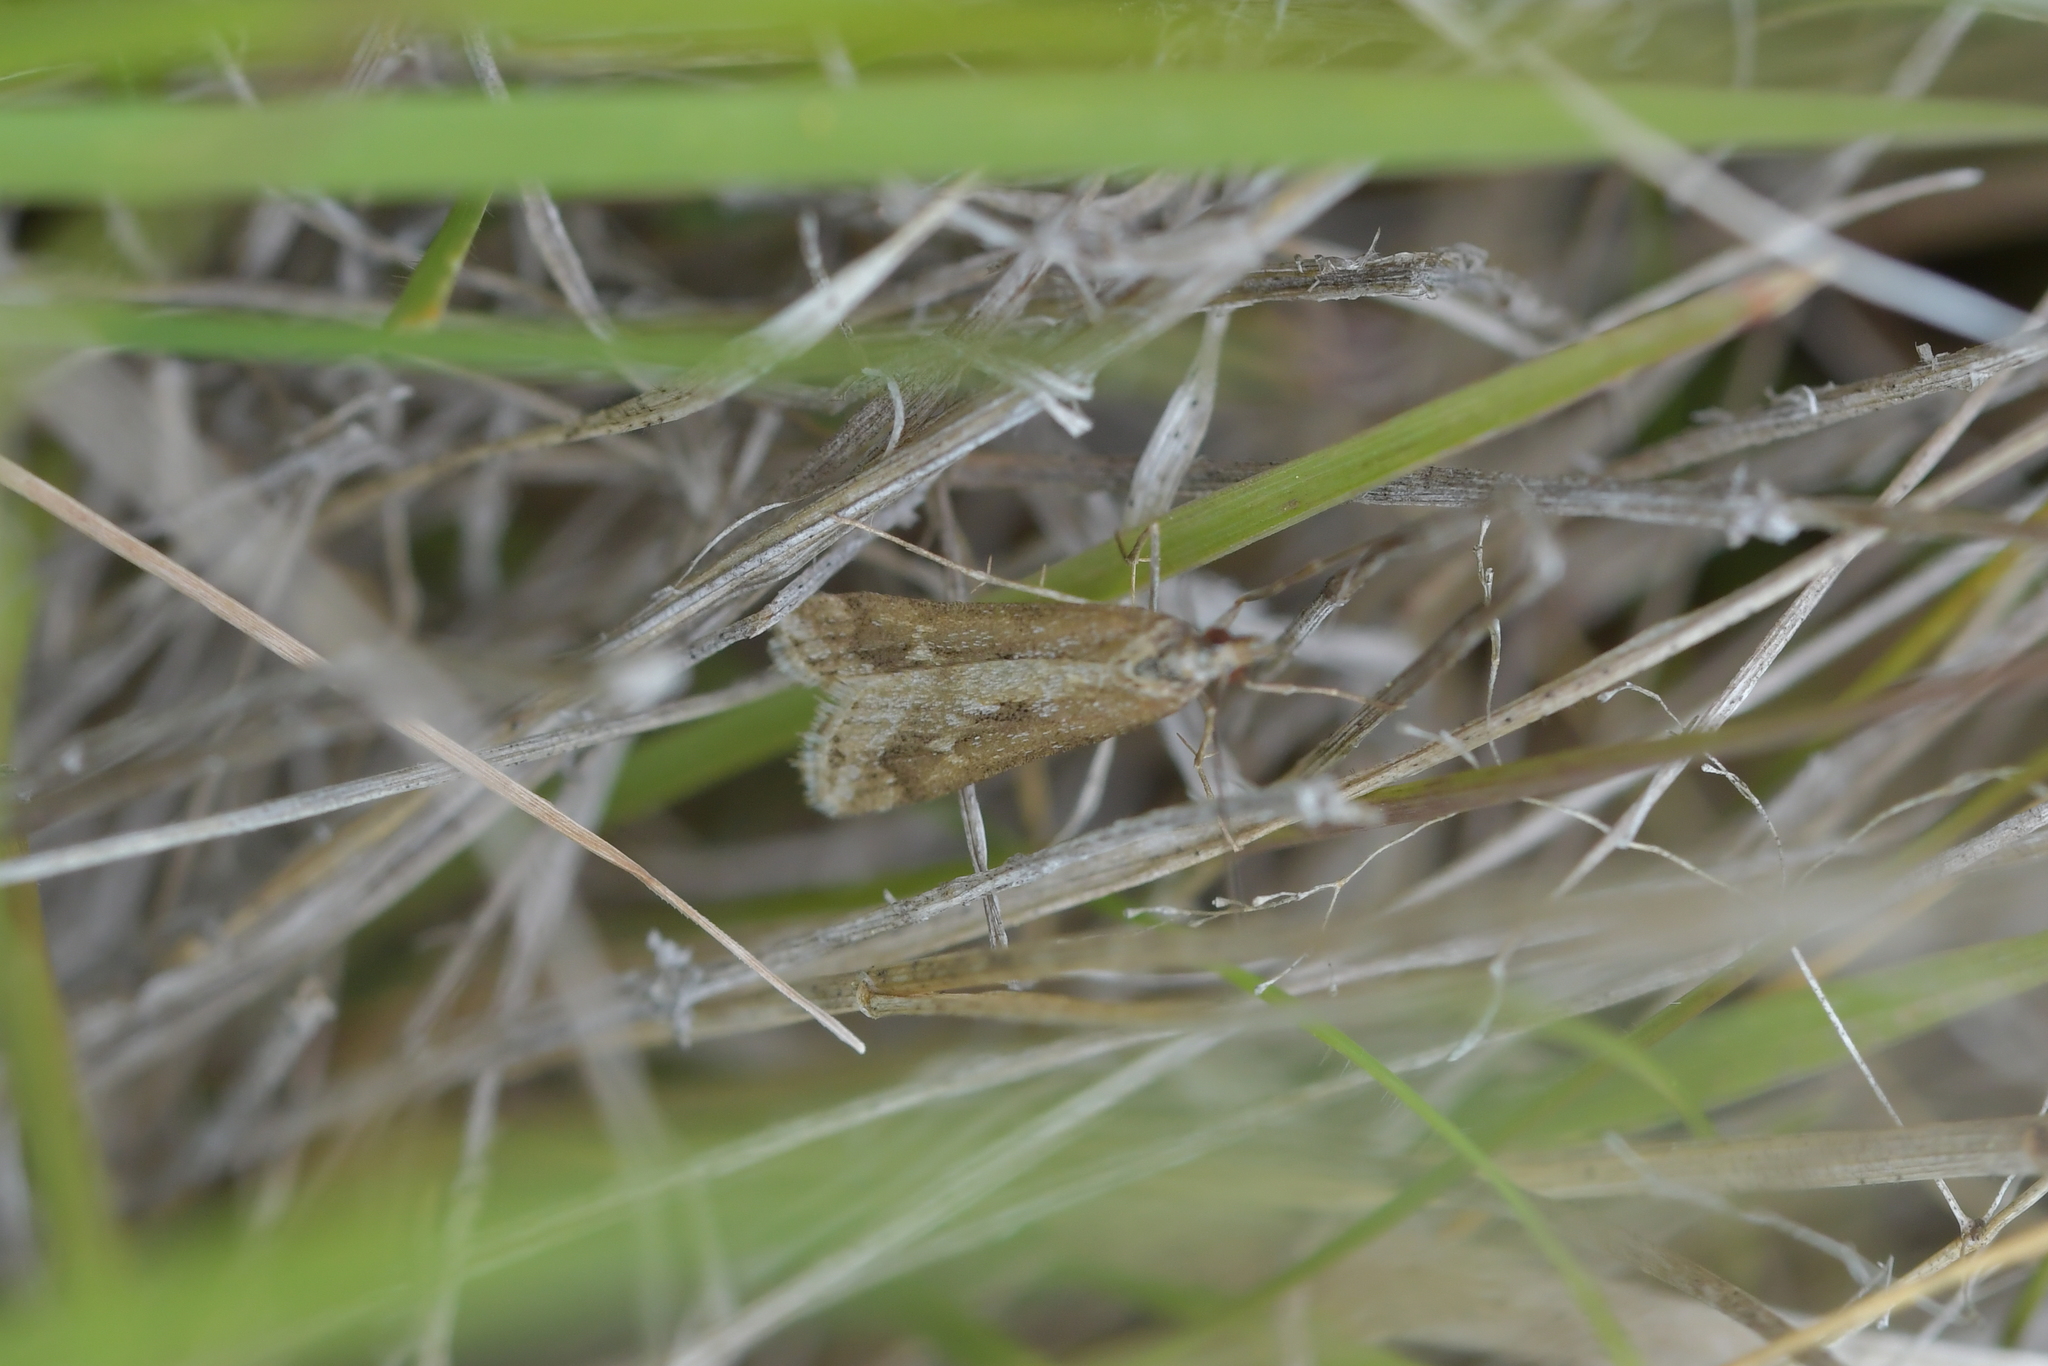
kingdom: Animalia
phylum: Arthropoda
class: Insecta
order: Lepidoptera
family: Crambidae
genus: Scoparia
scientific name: Scoparia exilis
